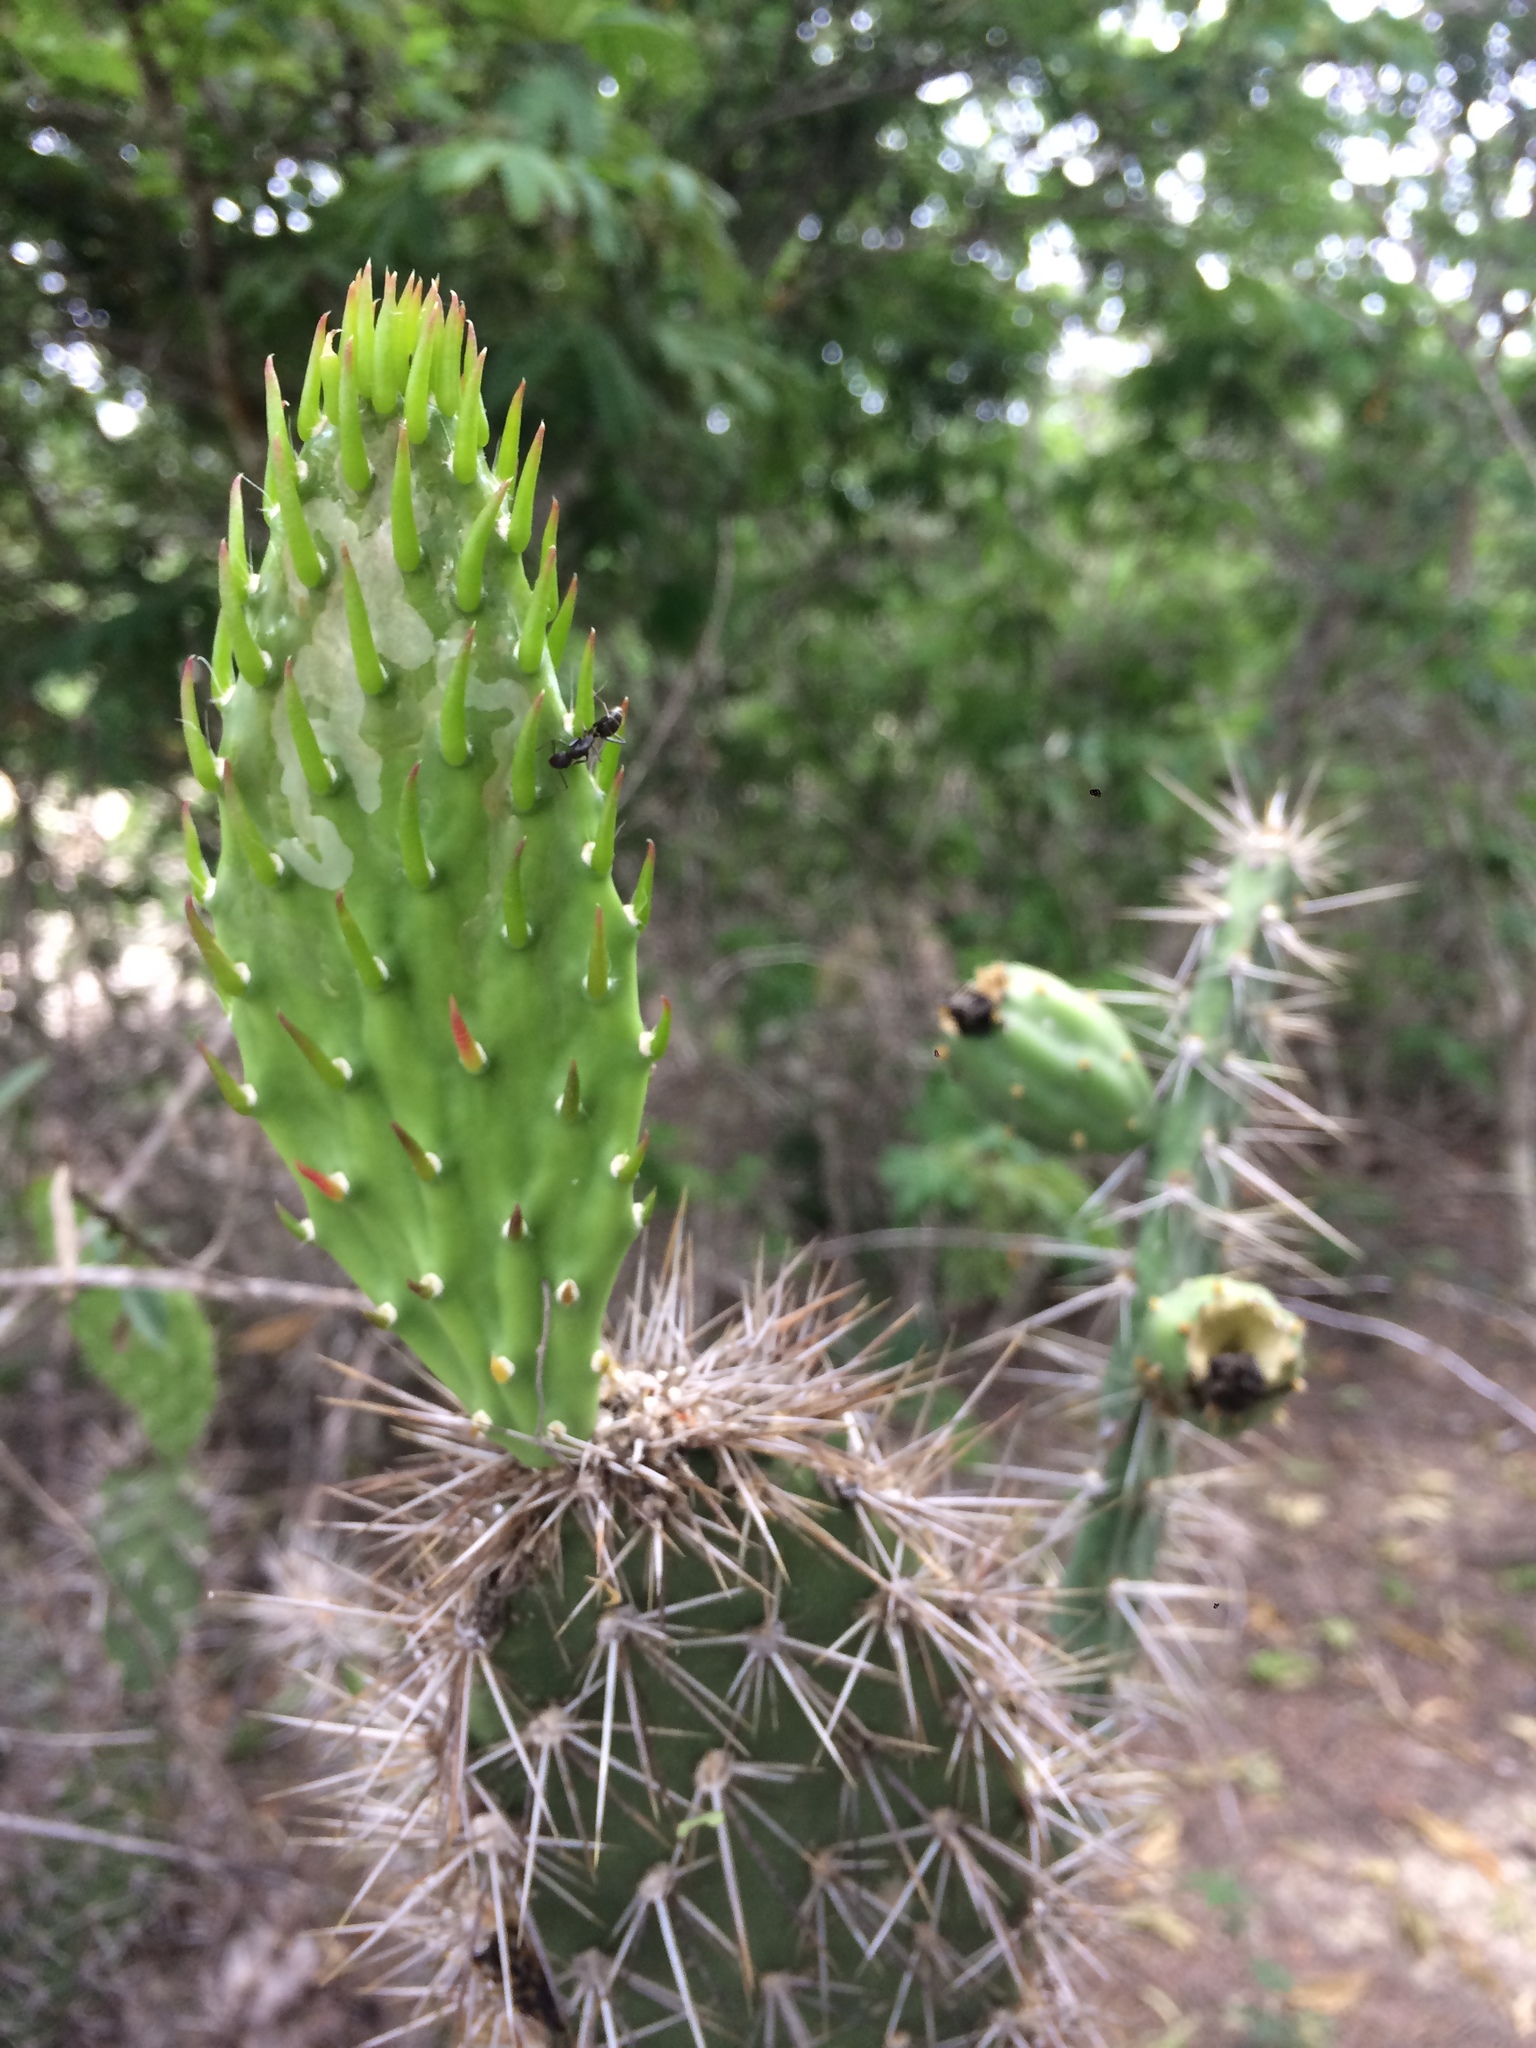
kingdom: Plantae
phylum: Tracheophyta
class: Magnoliopsida
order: Caryophyllales
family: Cactaceae
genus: Tacinga
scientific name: Tacinga werneri
